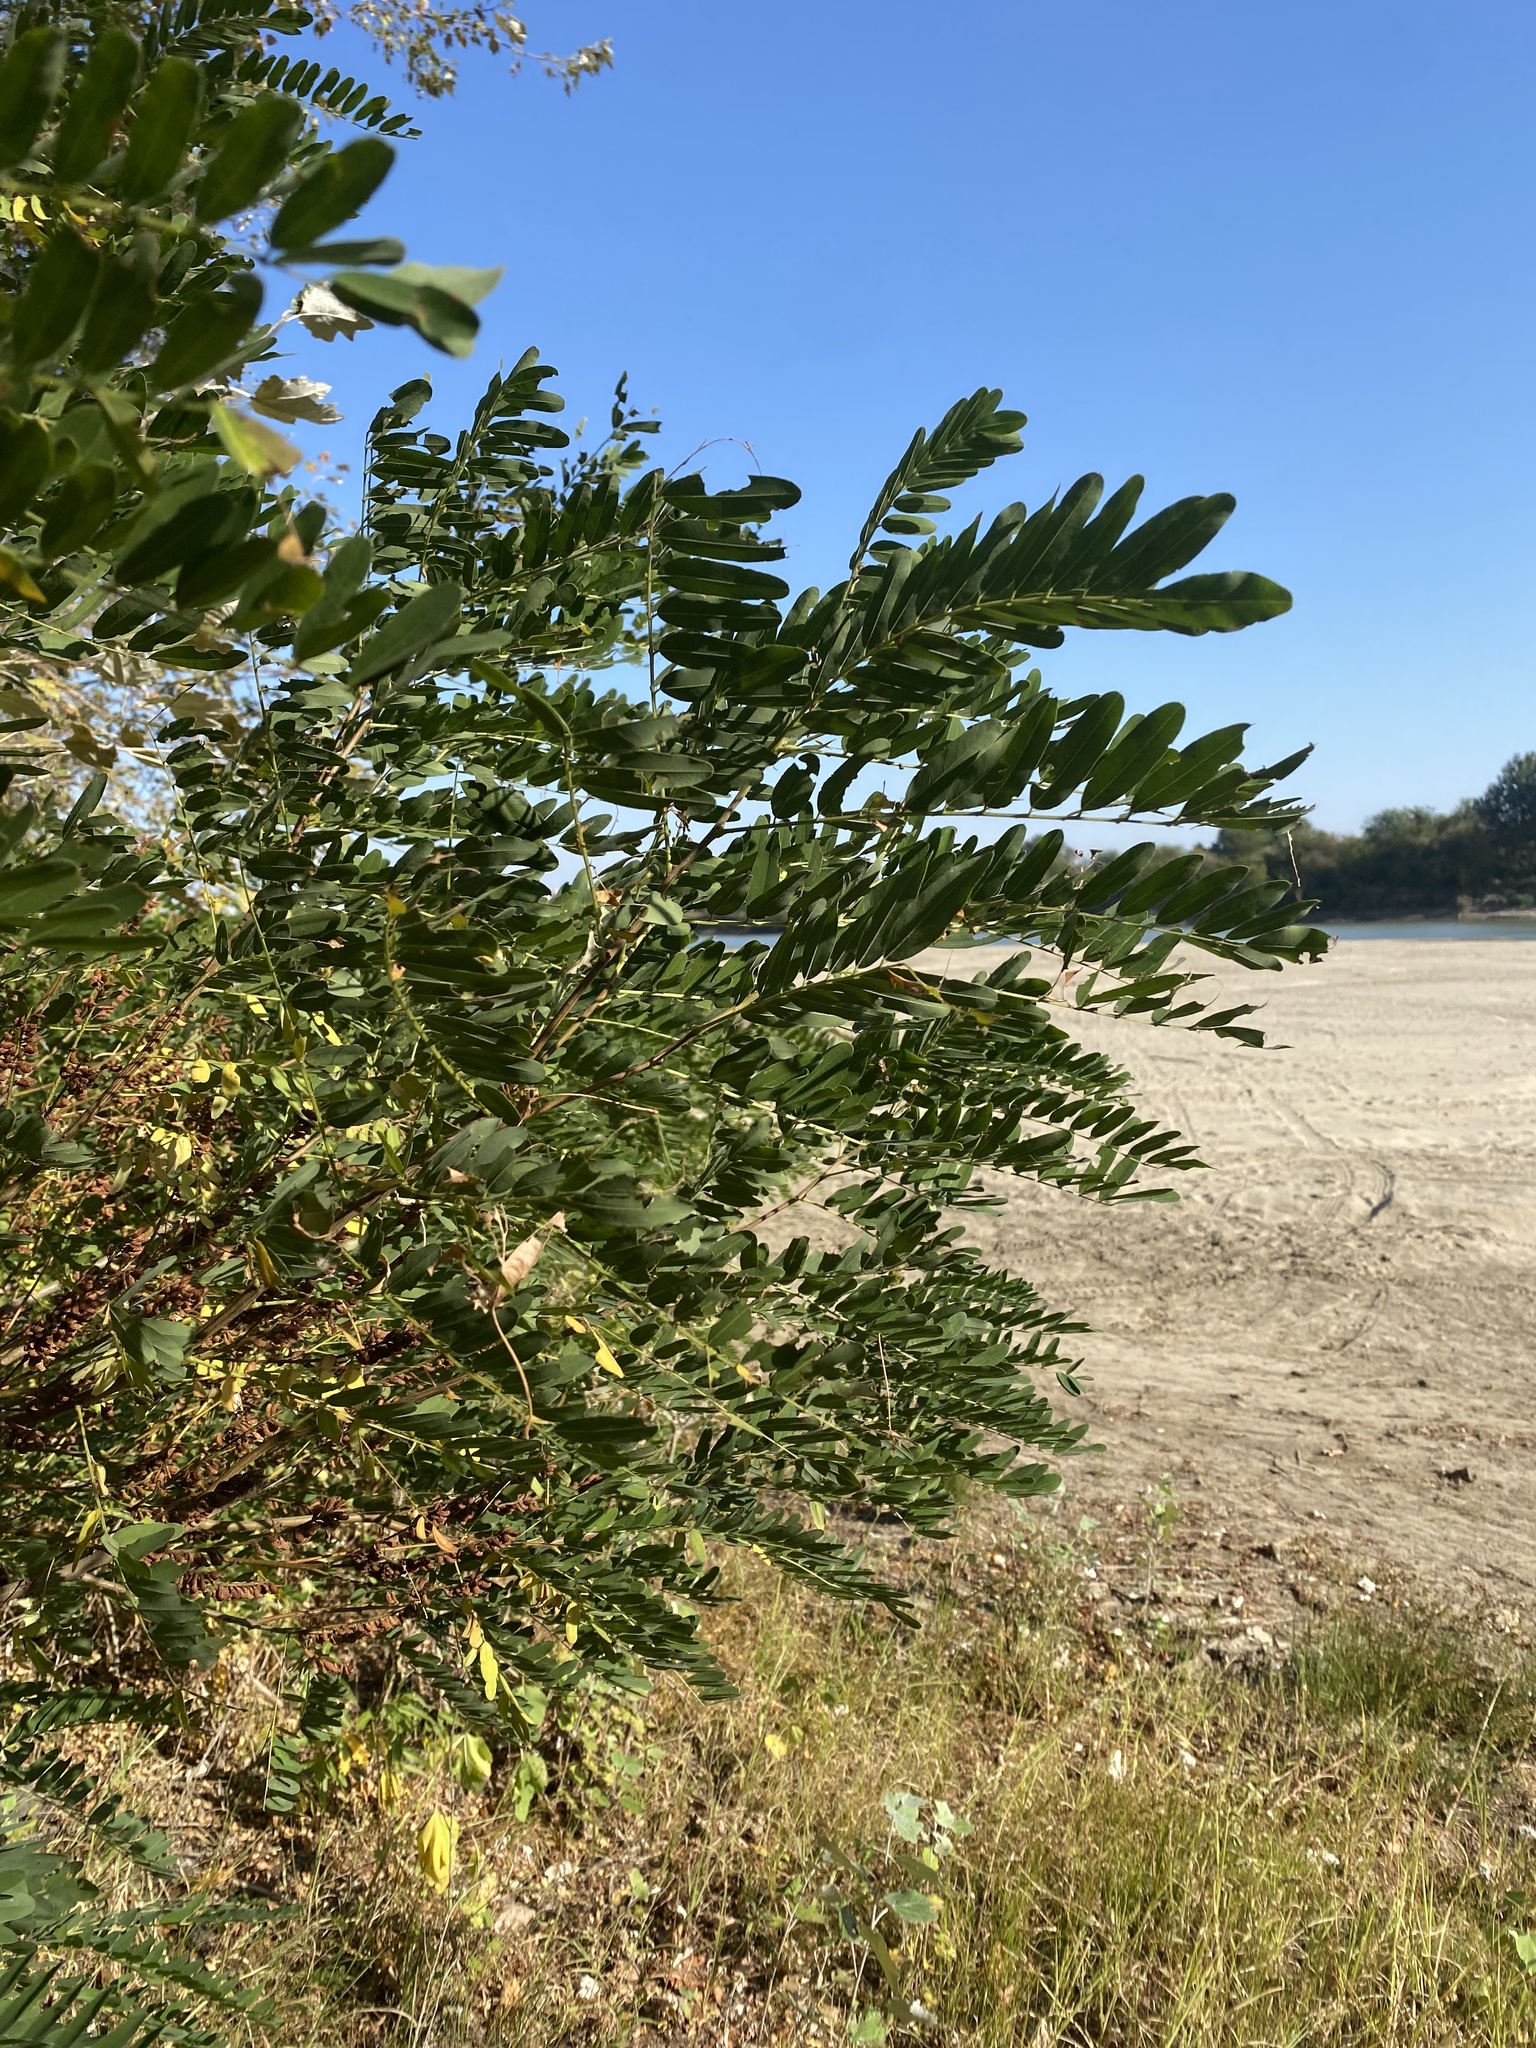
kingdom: Plantae
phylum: Tracheophyta
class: Magnoliopsida
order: Fabales
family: Fabaceae
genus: Amorpha
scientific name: Amorpha fruticosa
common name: False indigo
